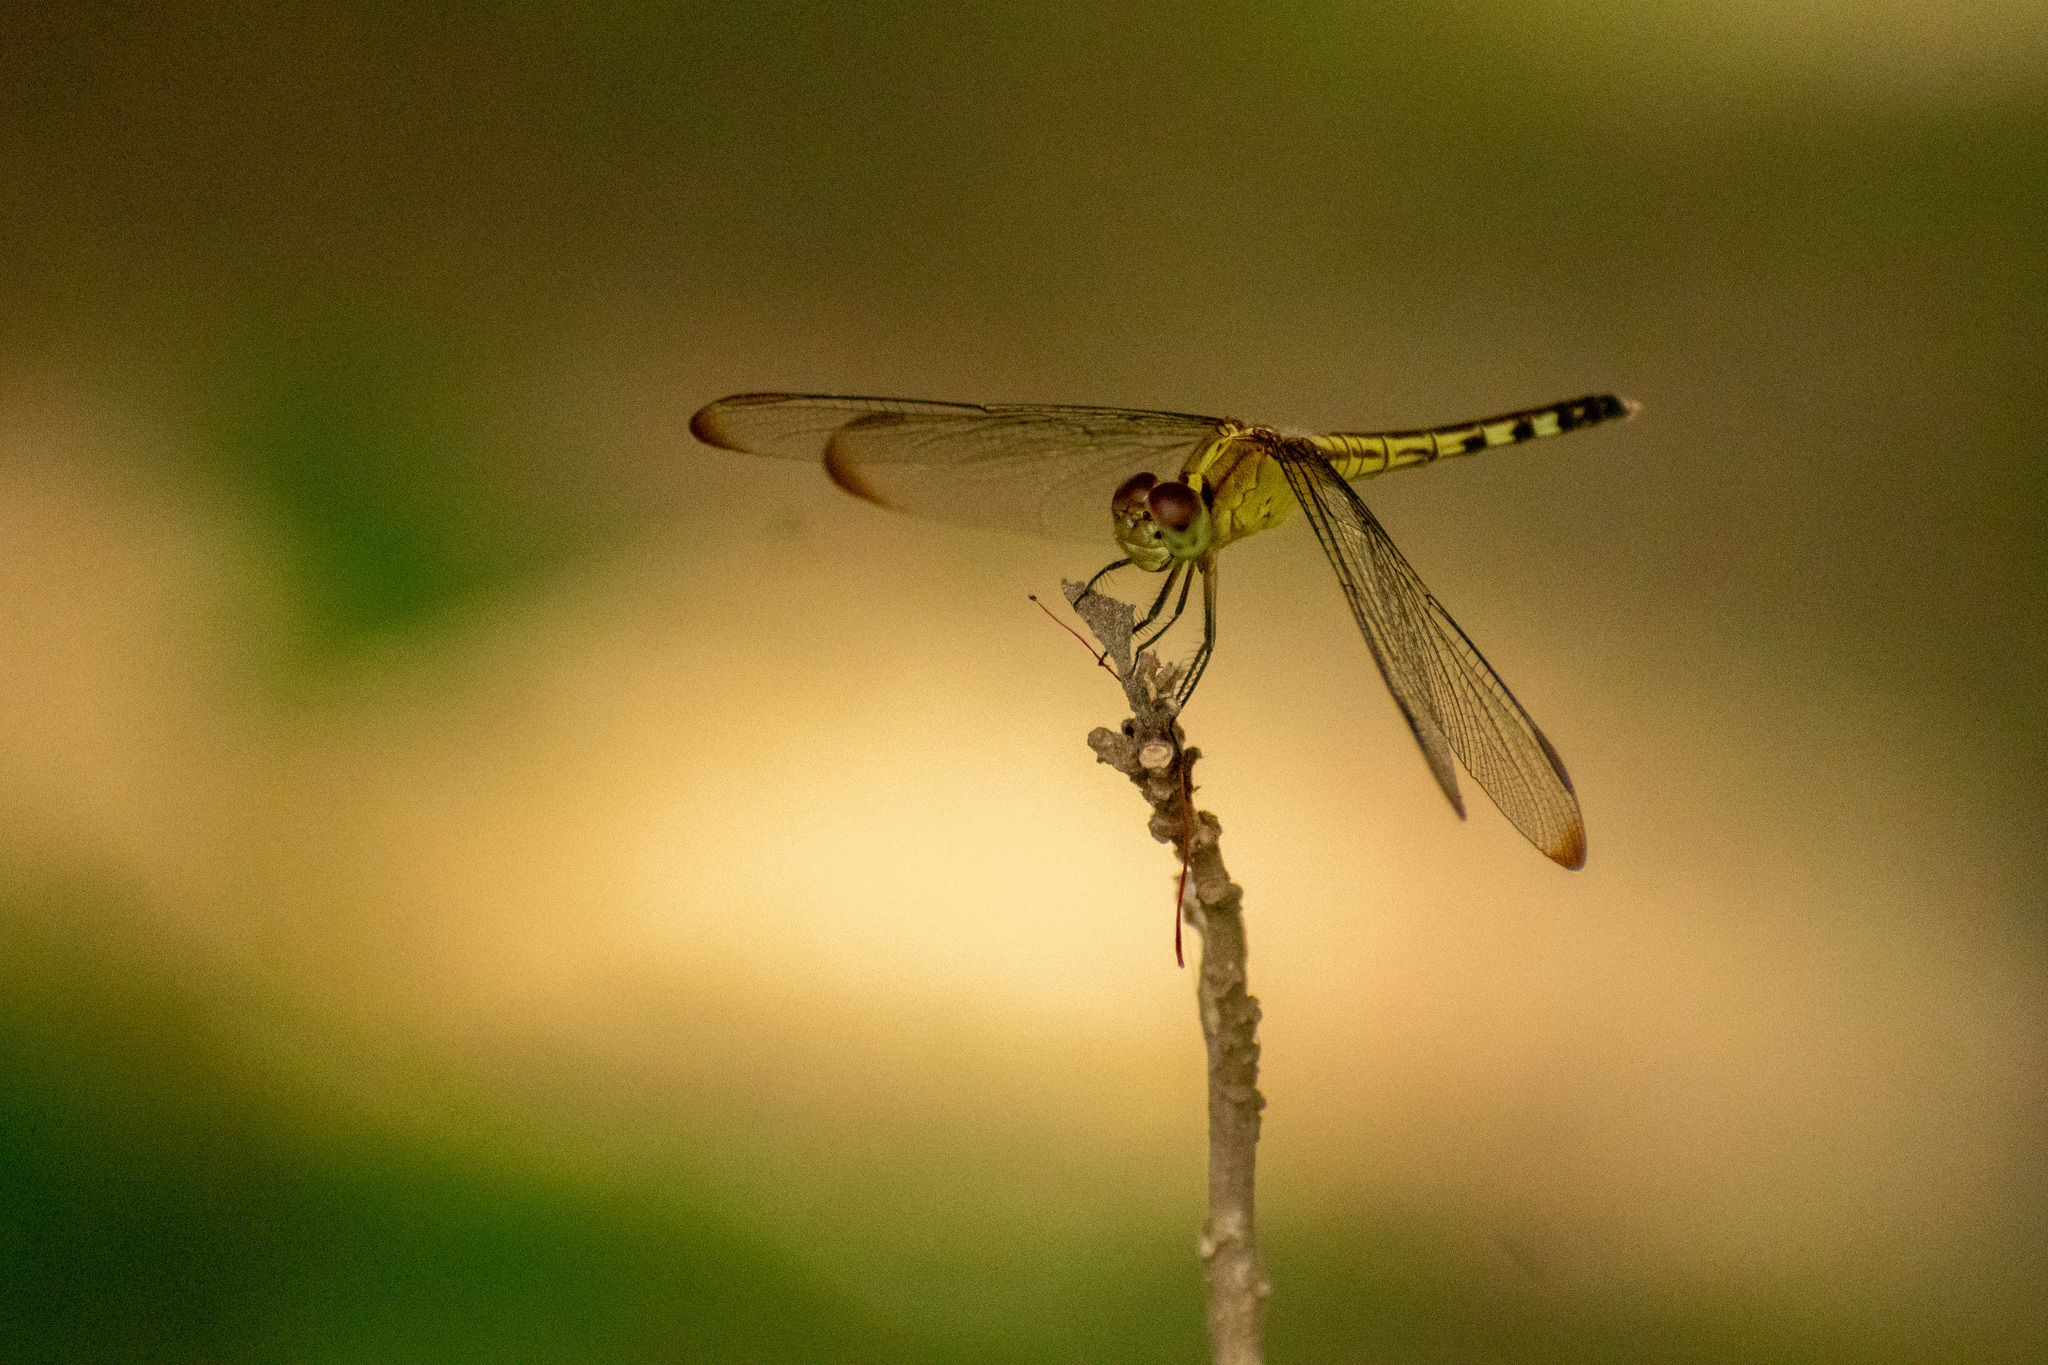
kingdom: Animalia
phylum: Arthropoda
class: Insecta
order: Odonata
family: Libellulidae
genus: Erythrodiplax
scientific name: Erythrodiplax umbrata
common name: Band-winged dragonlet
